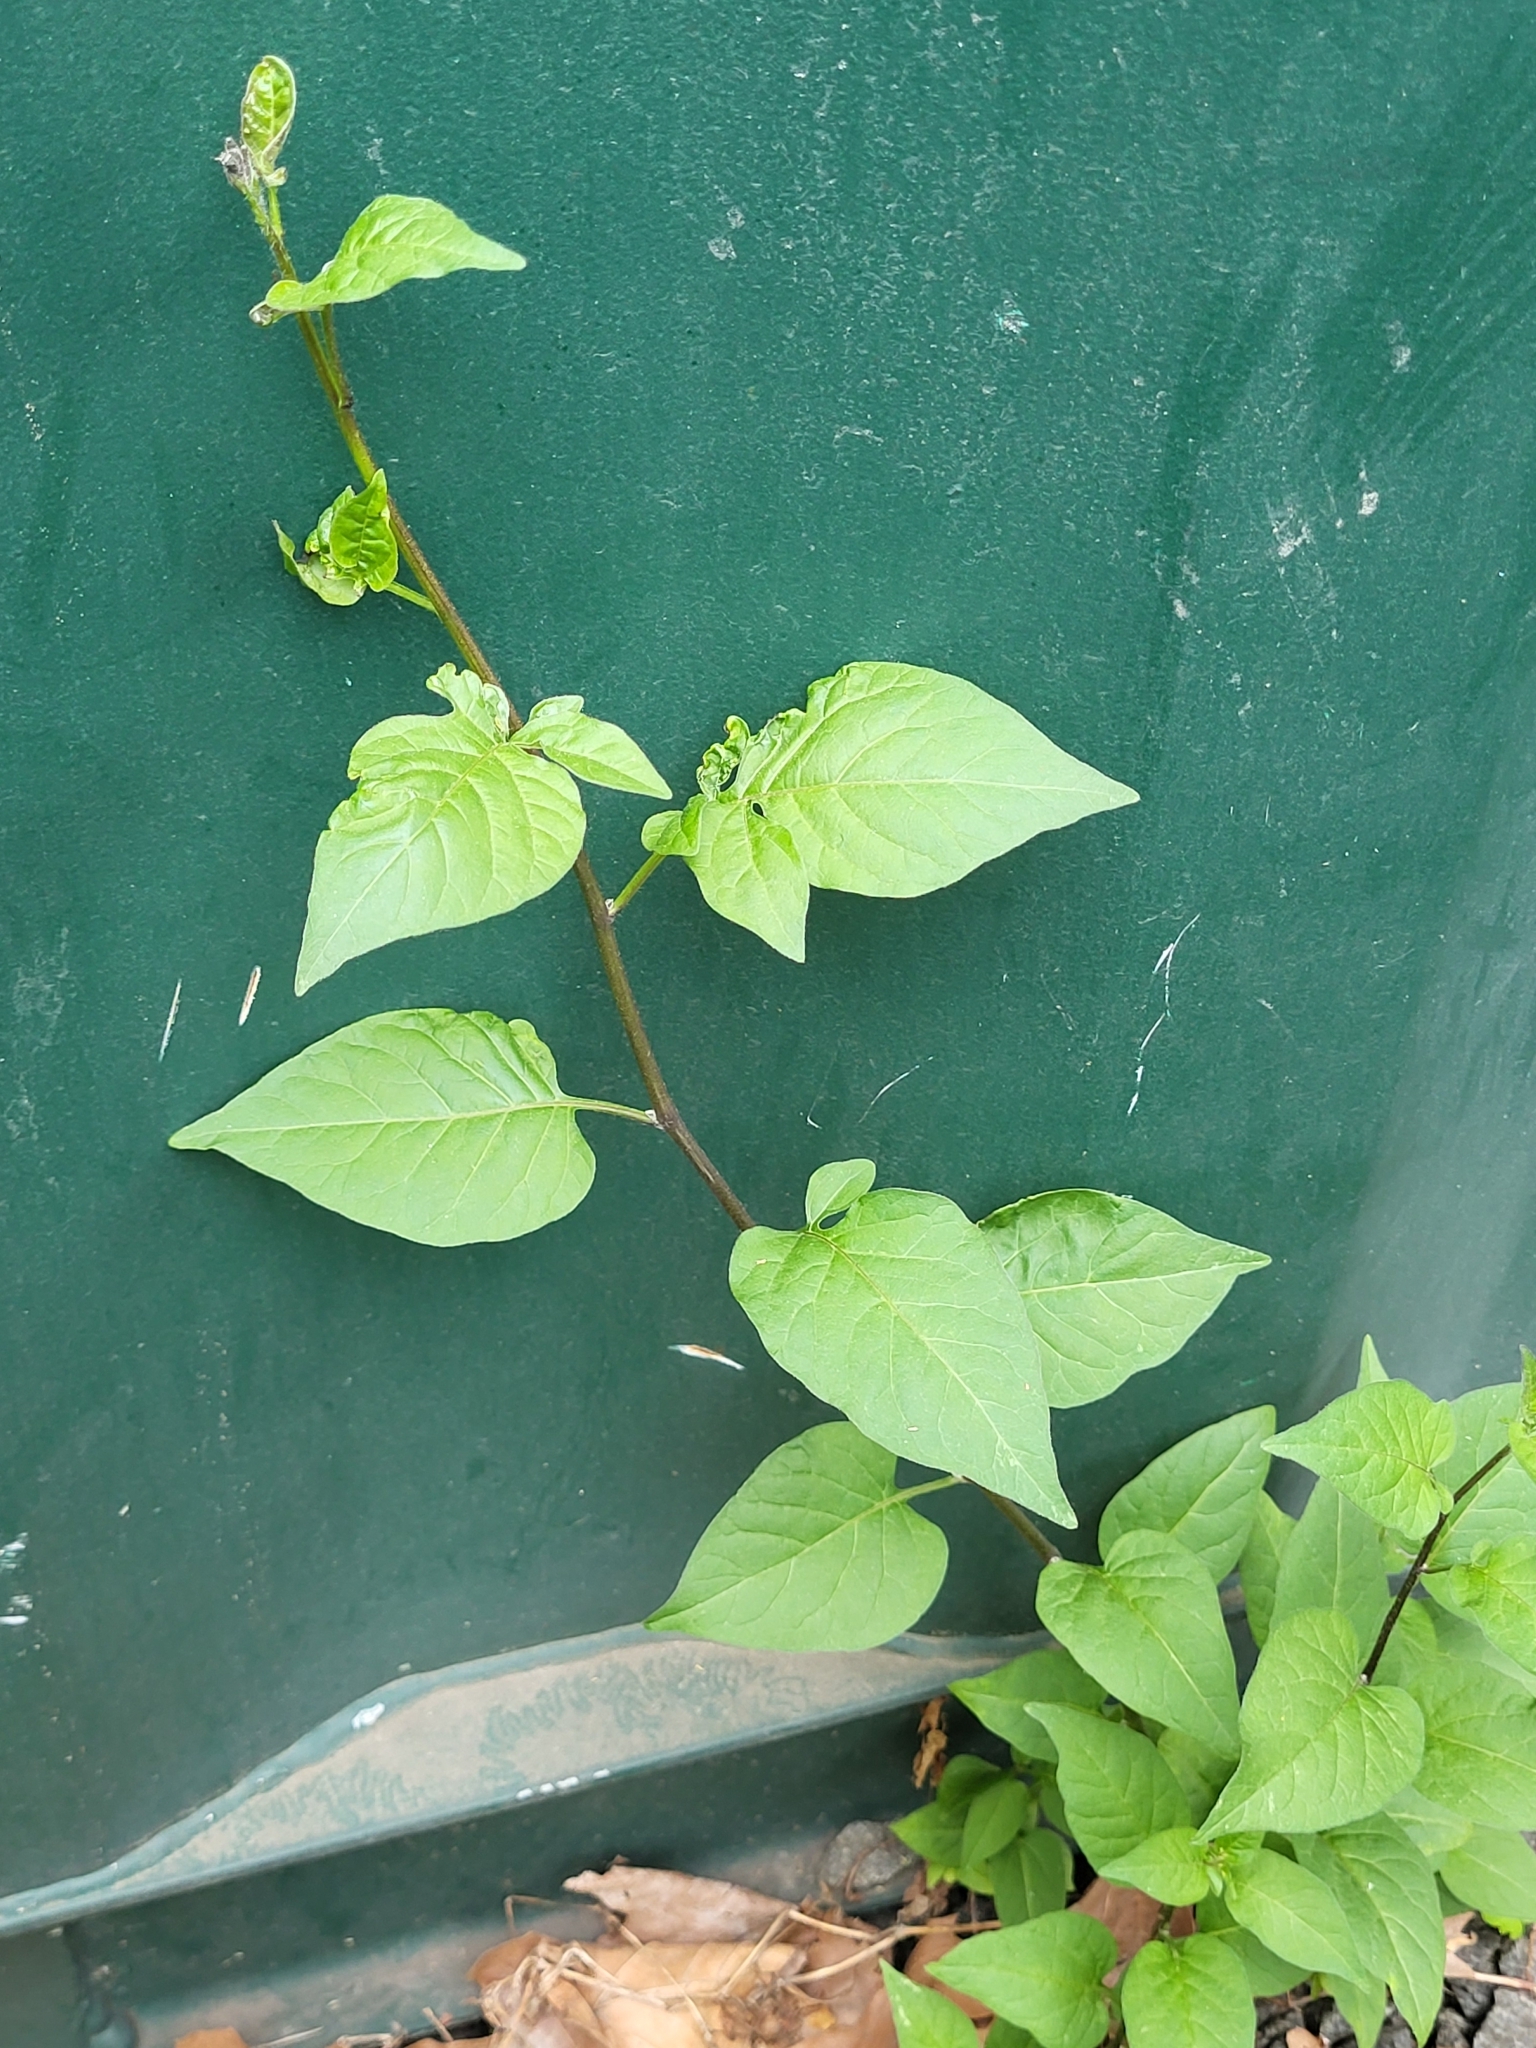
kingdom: Plantae
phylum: Tracheophyta
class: Magnoliopsida
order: Solanales
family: Solanaceae
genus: Solanum
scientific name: Solanum dulcamara
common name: Climbing nightshade
